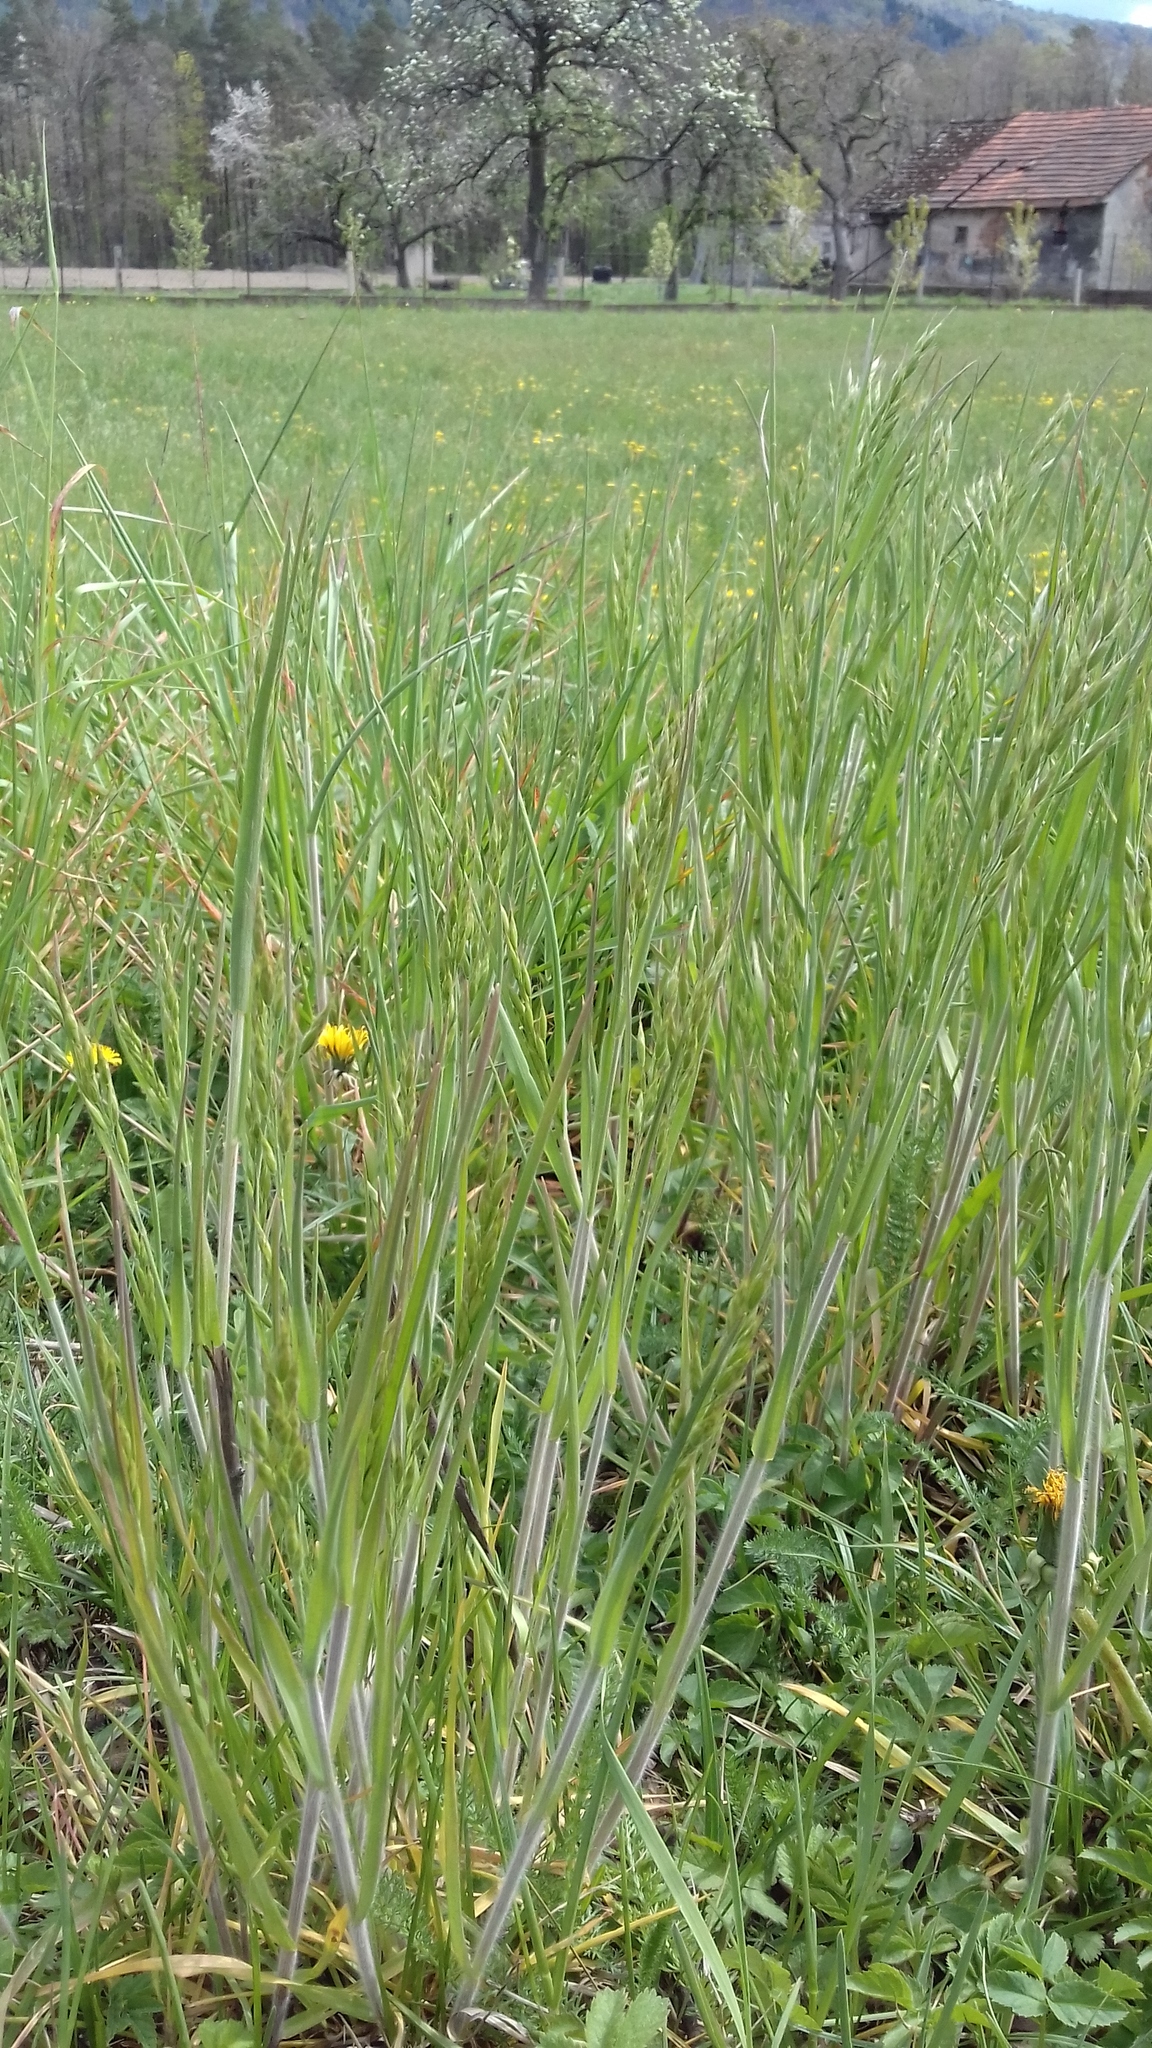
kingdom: Plantae
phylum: Tracheophyta
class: Liliopsida
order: Poales
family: Poaceae
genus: Bromus
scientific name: Bromus hordeaceus
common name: Soft brome
